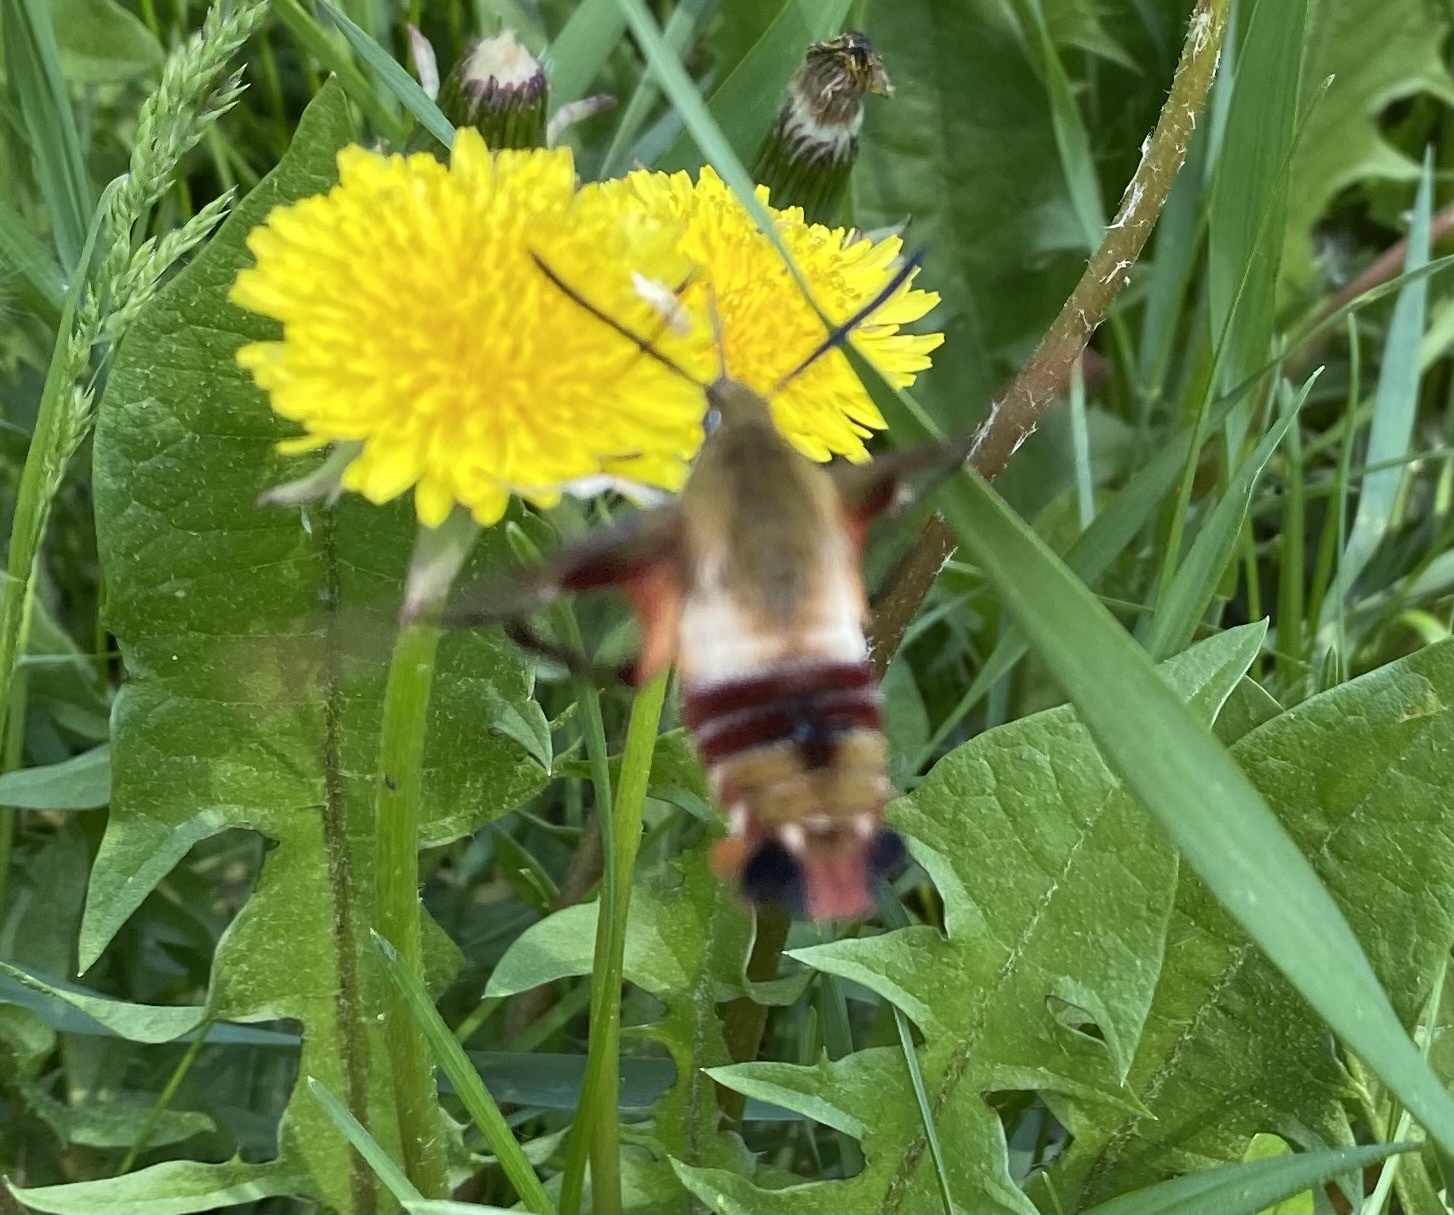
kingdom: Animalia
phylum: Arthropoda
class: Insecta
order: Lepidoptera
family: Sphingidae
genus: Hemaris
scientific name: Hemaris thysbe
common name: Common clear-wing
